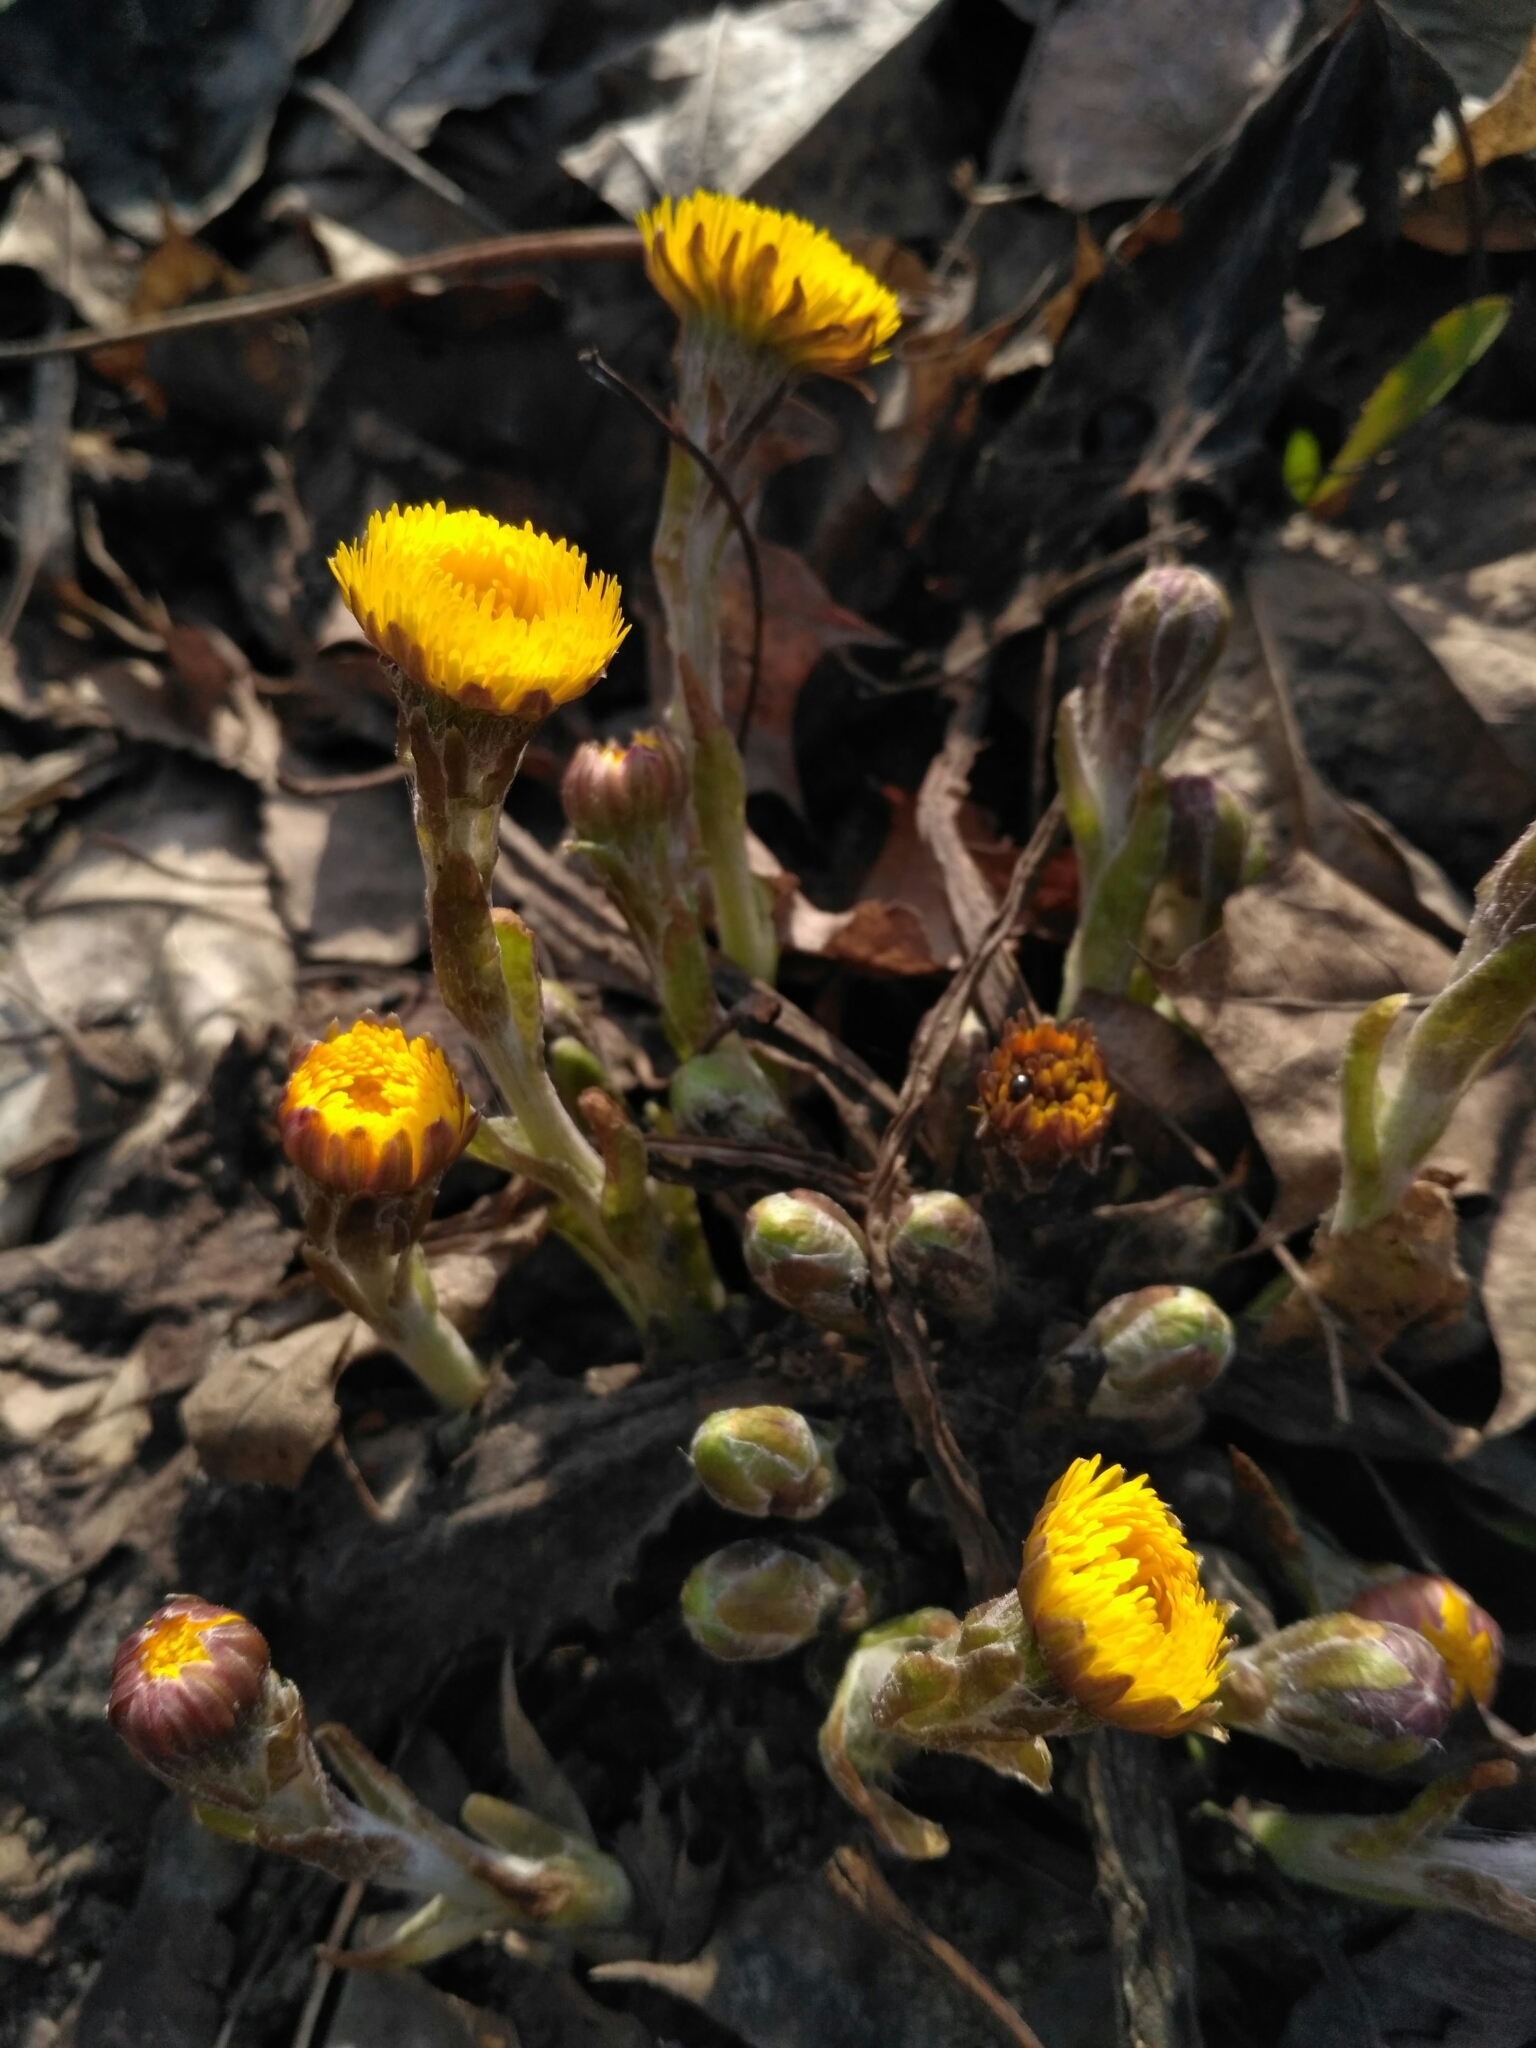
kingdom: Plantae
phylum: Tracheophyta
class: Magnoliopsida
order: Asterales
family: Asteraceae
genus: Tussilago
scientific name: Tussilago farfara
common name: Coltsfoot
